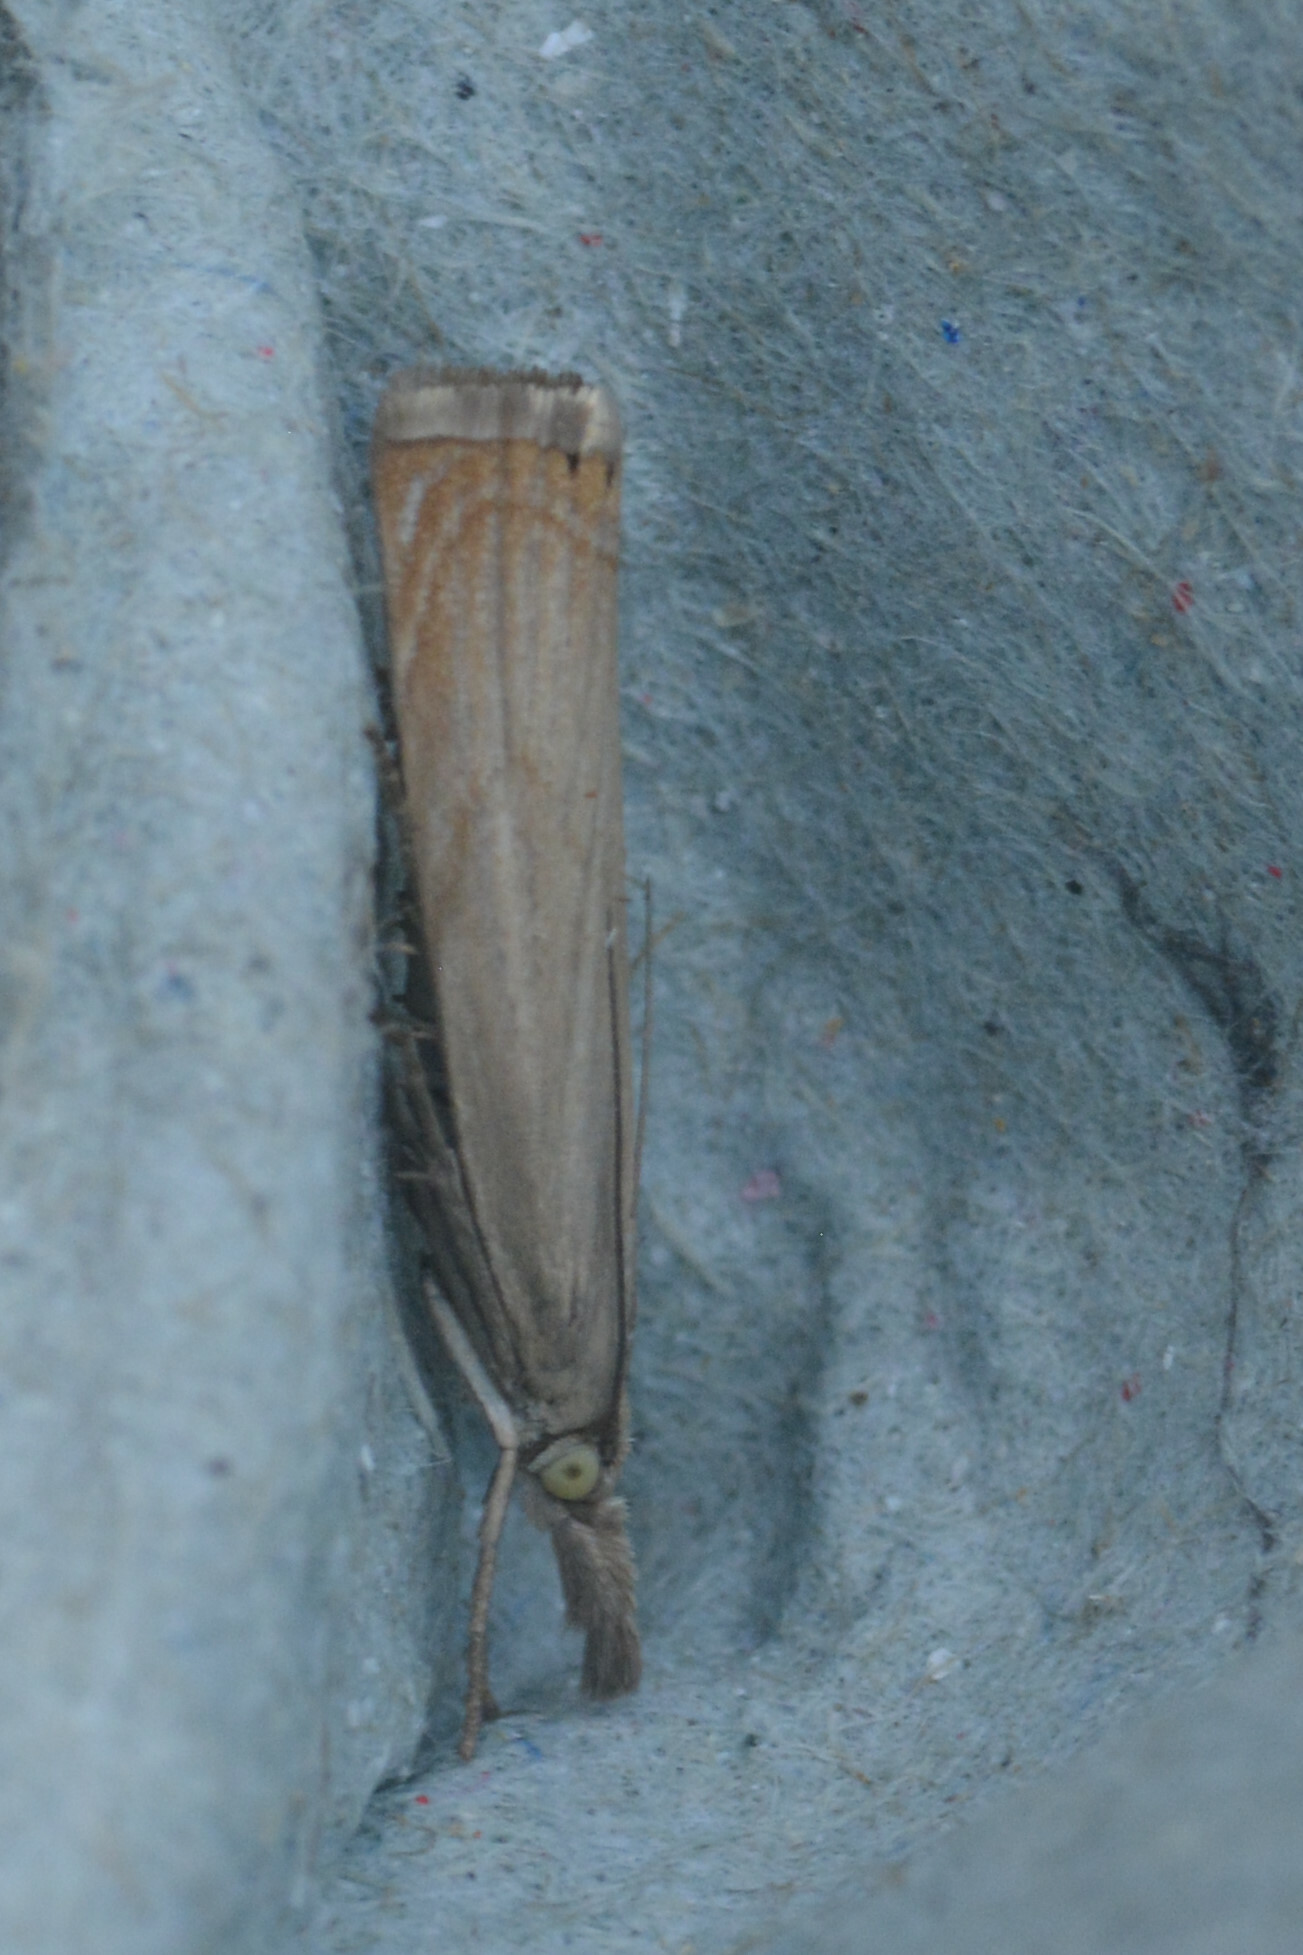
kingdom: Animalia
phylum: Arthropoda
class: Insecta
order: Lepidoptera
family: Crambidae
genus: Chrysoteuchia
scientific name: Chrysoteuchia culmella
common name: Garden grass-veneer
